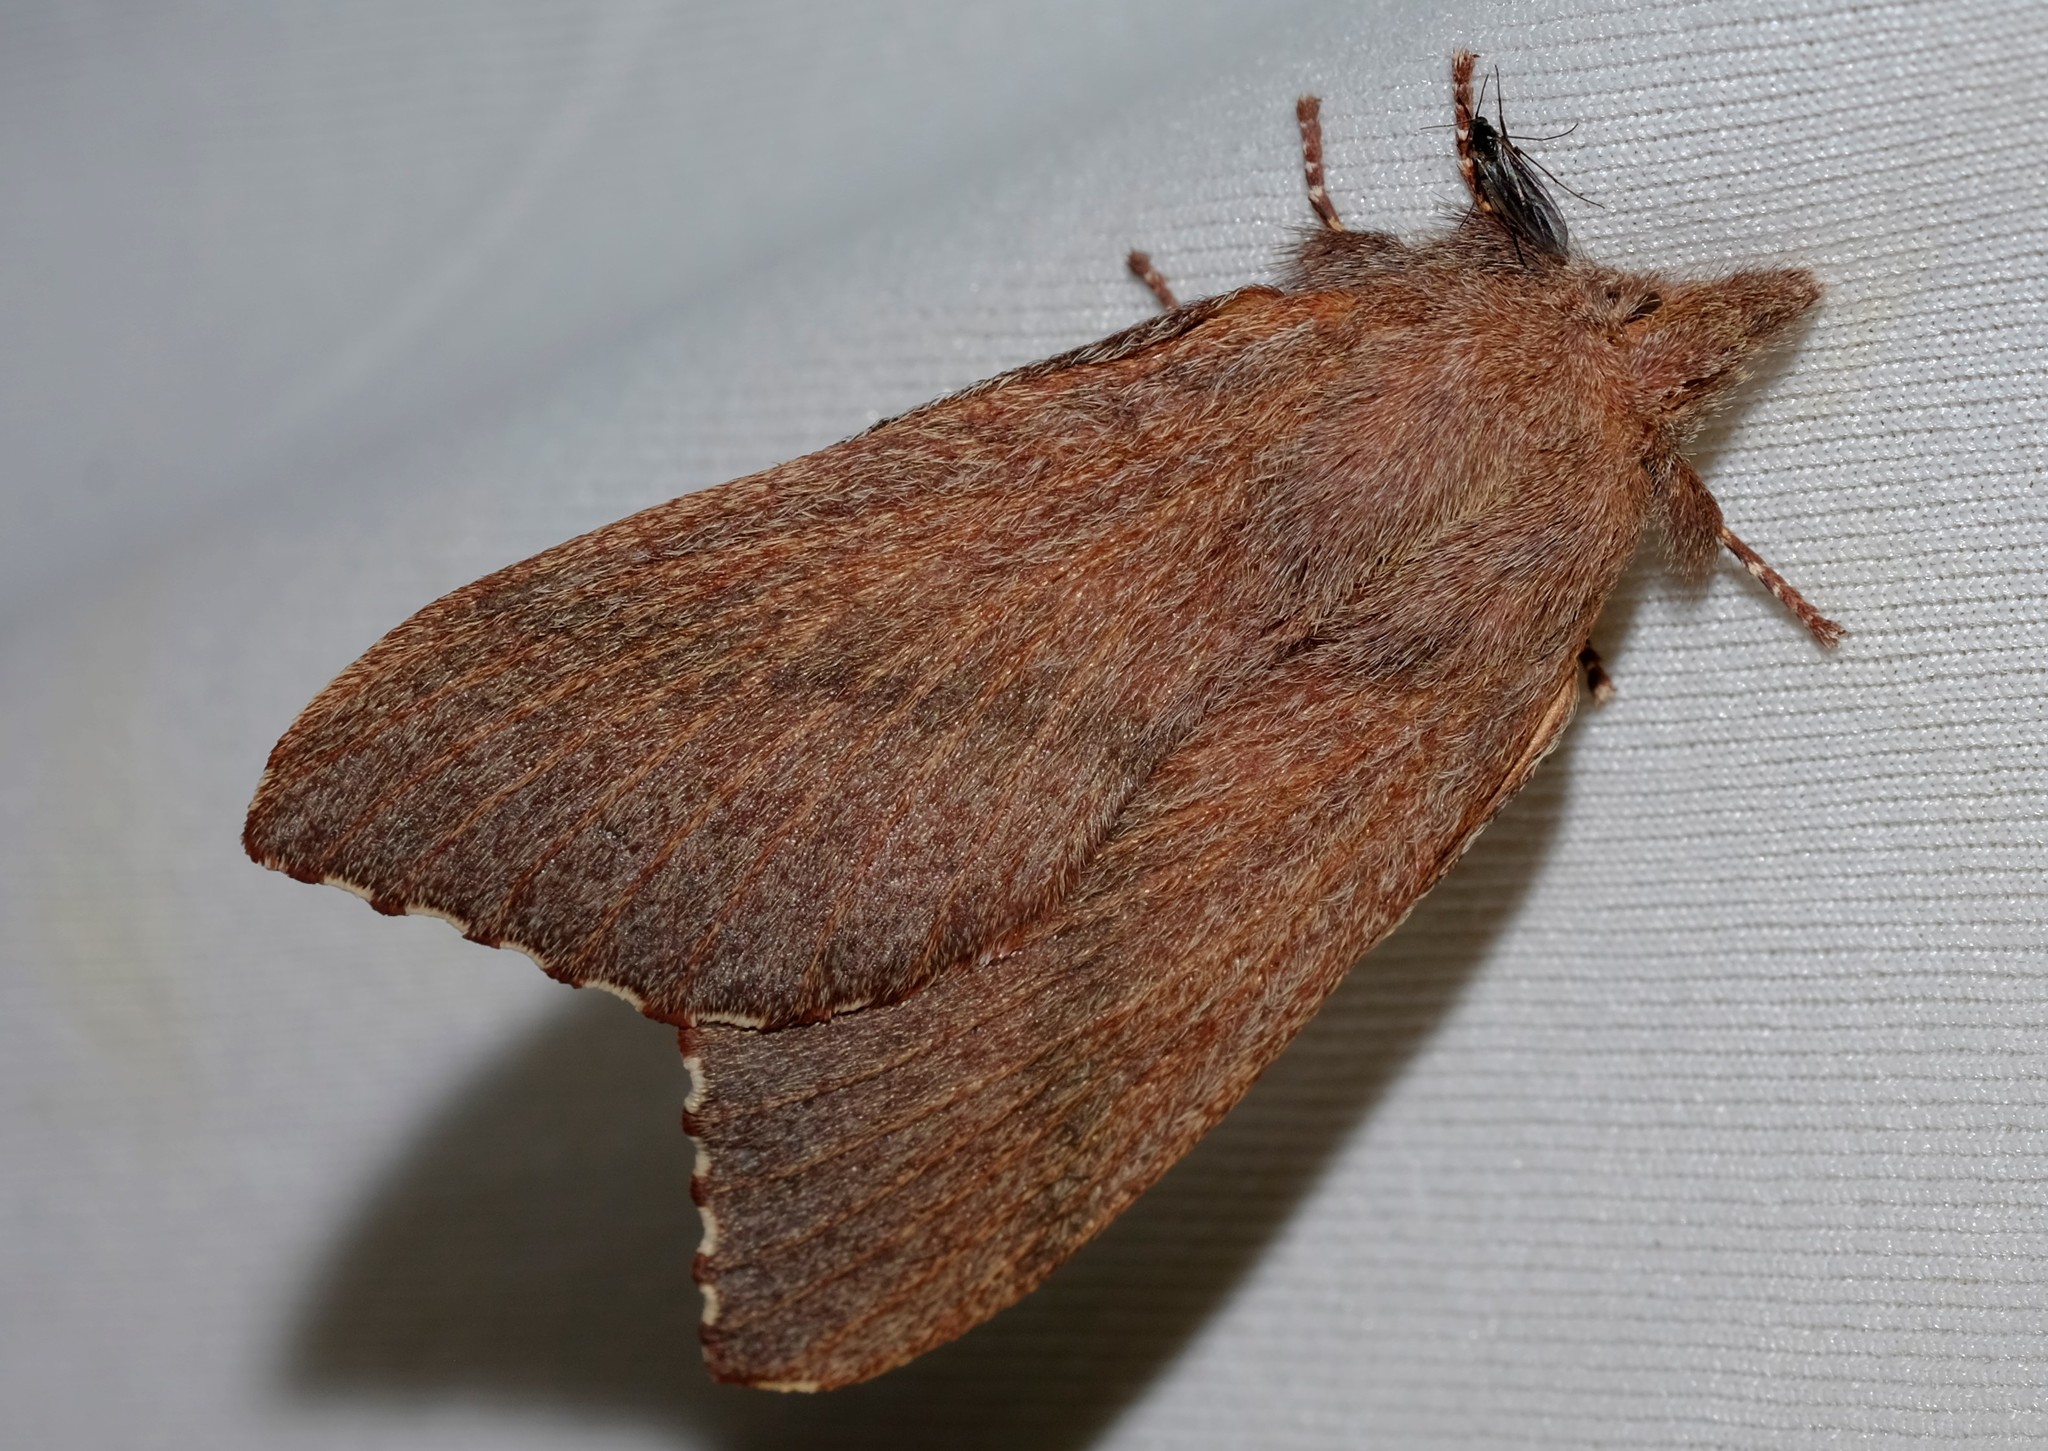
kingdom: Animalia
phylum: Arthropoda
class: Insecta
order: Lepidoptera
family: Lasiocampidae
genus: Pararguda
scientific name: Pararguda rufescens
